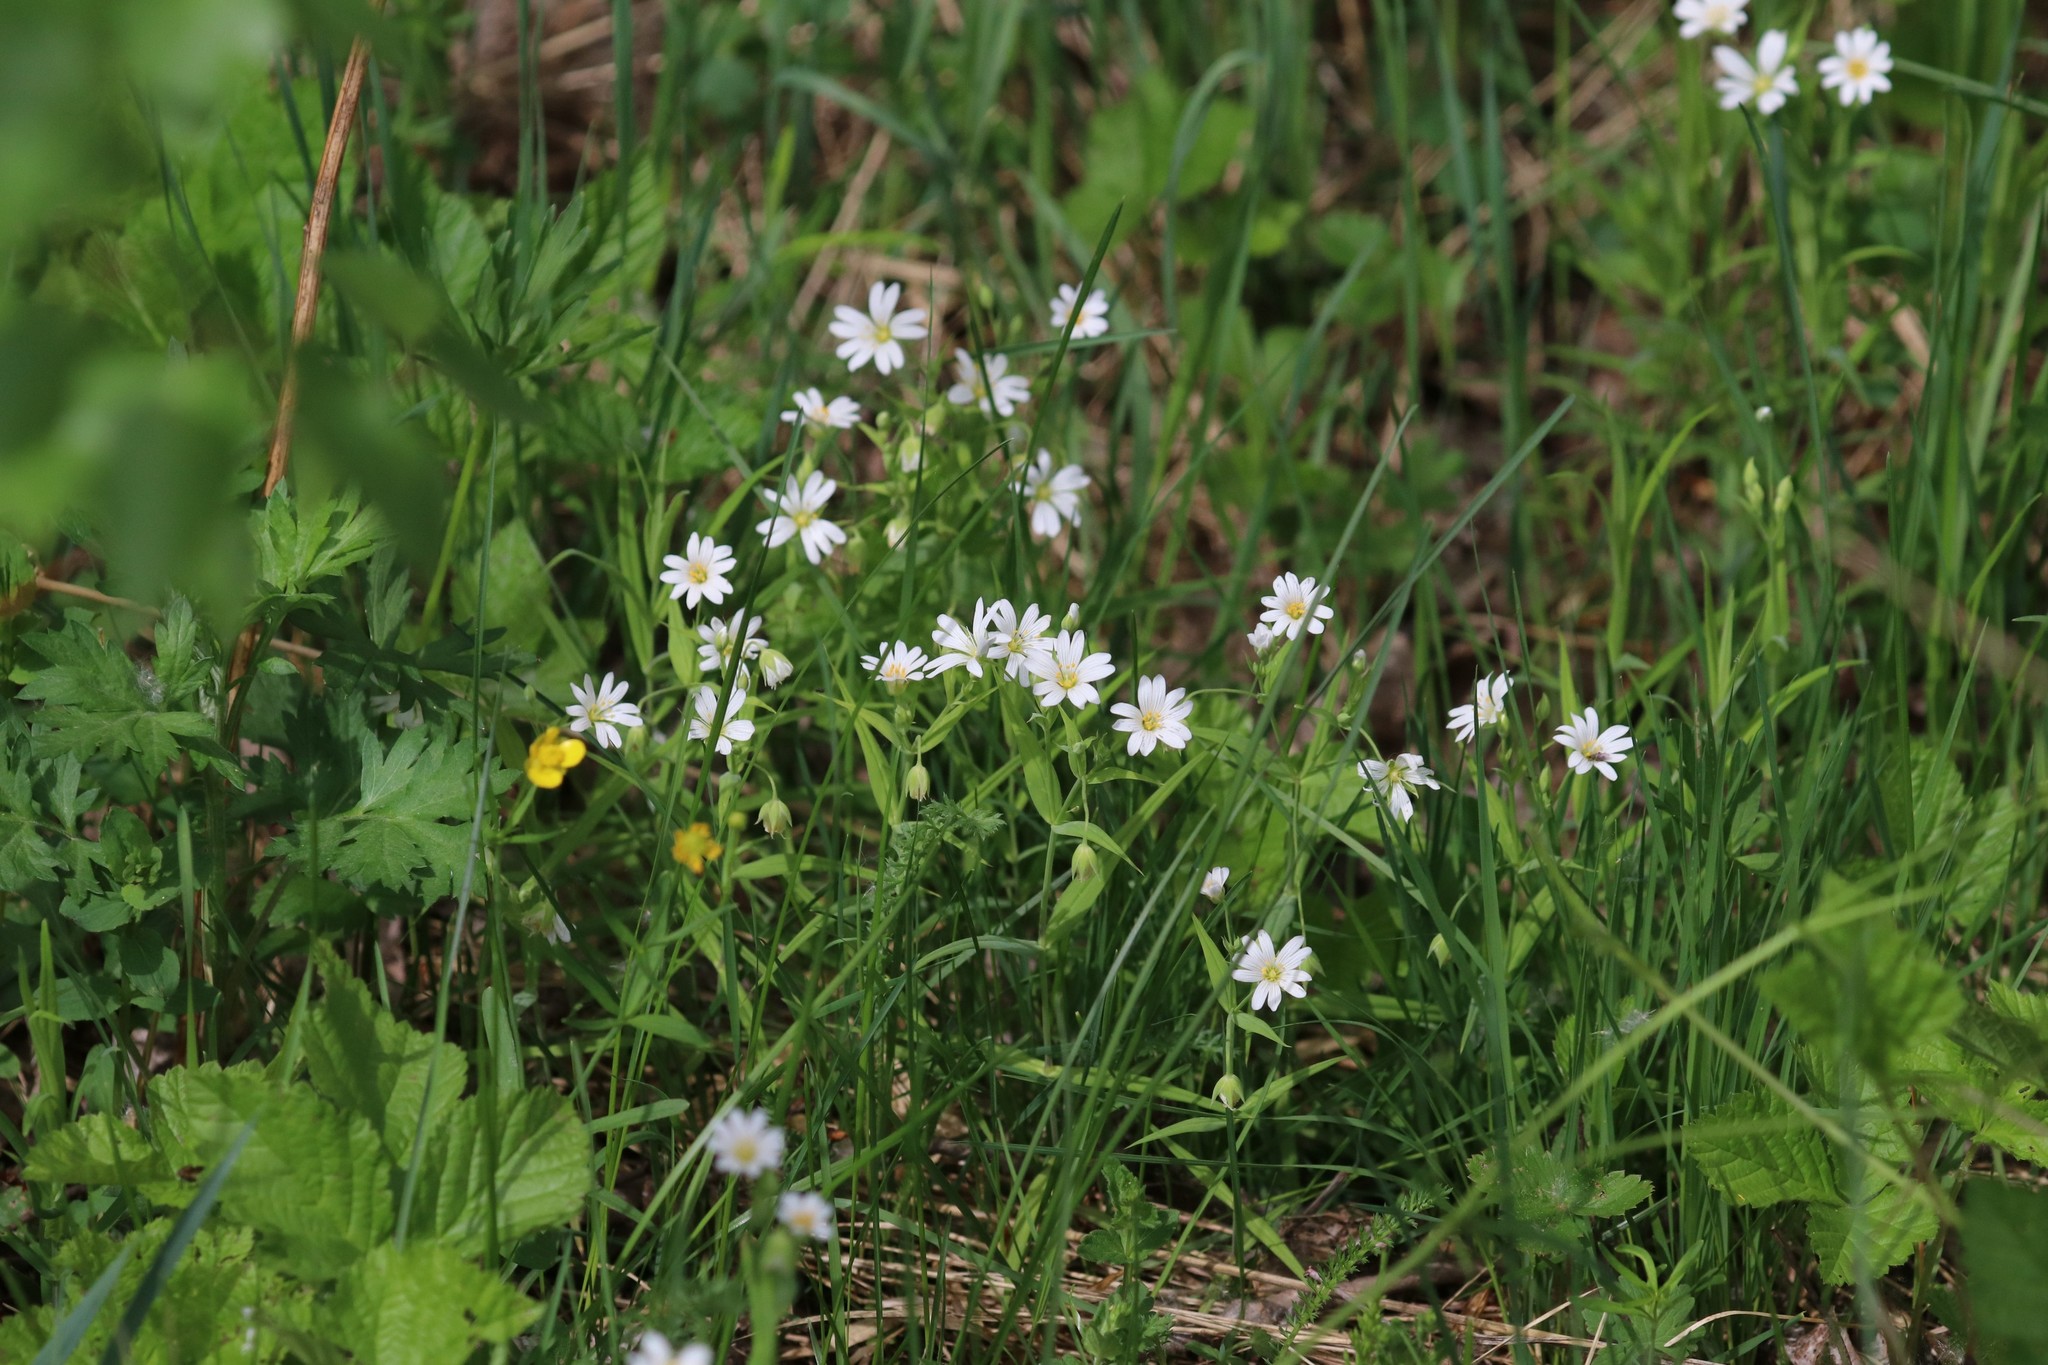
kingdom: Plantae
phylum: Tracheophyta
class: Magnoliopsida
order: Caryophyllales
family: Caryophyllaceae
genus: Rabelera
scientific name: Rabelera holostea
